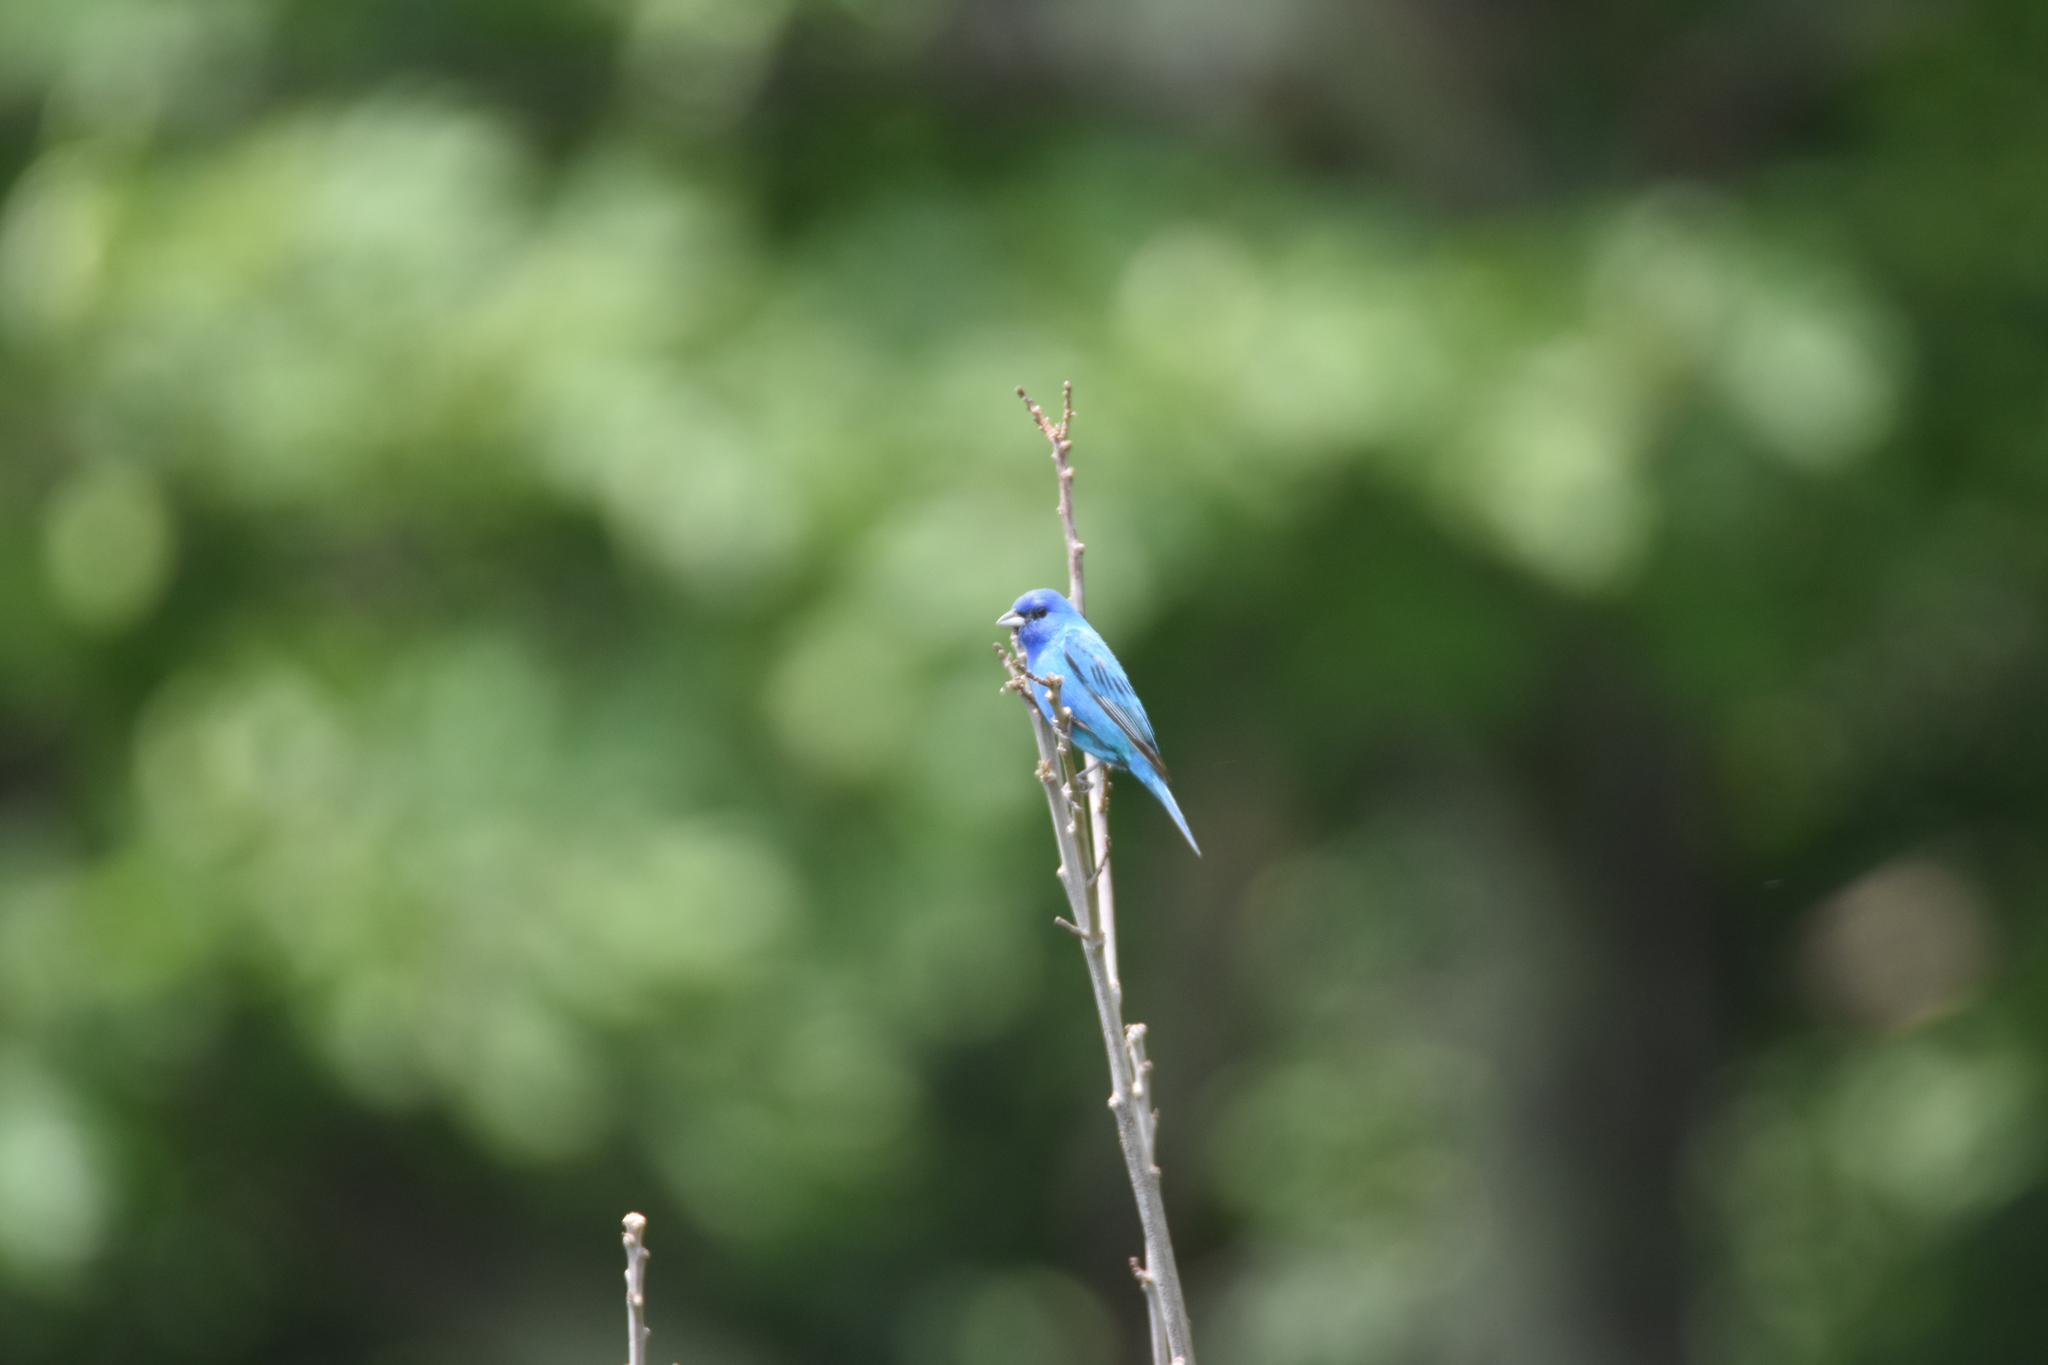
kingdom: Animalia
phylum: Chordata
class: Aves
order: Passeriformes
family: Cardinalidae
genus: Passerina
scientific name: Passerina cyanea
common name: Indigo bunting
